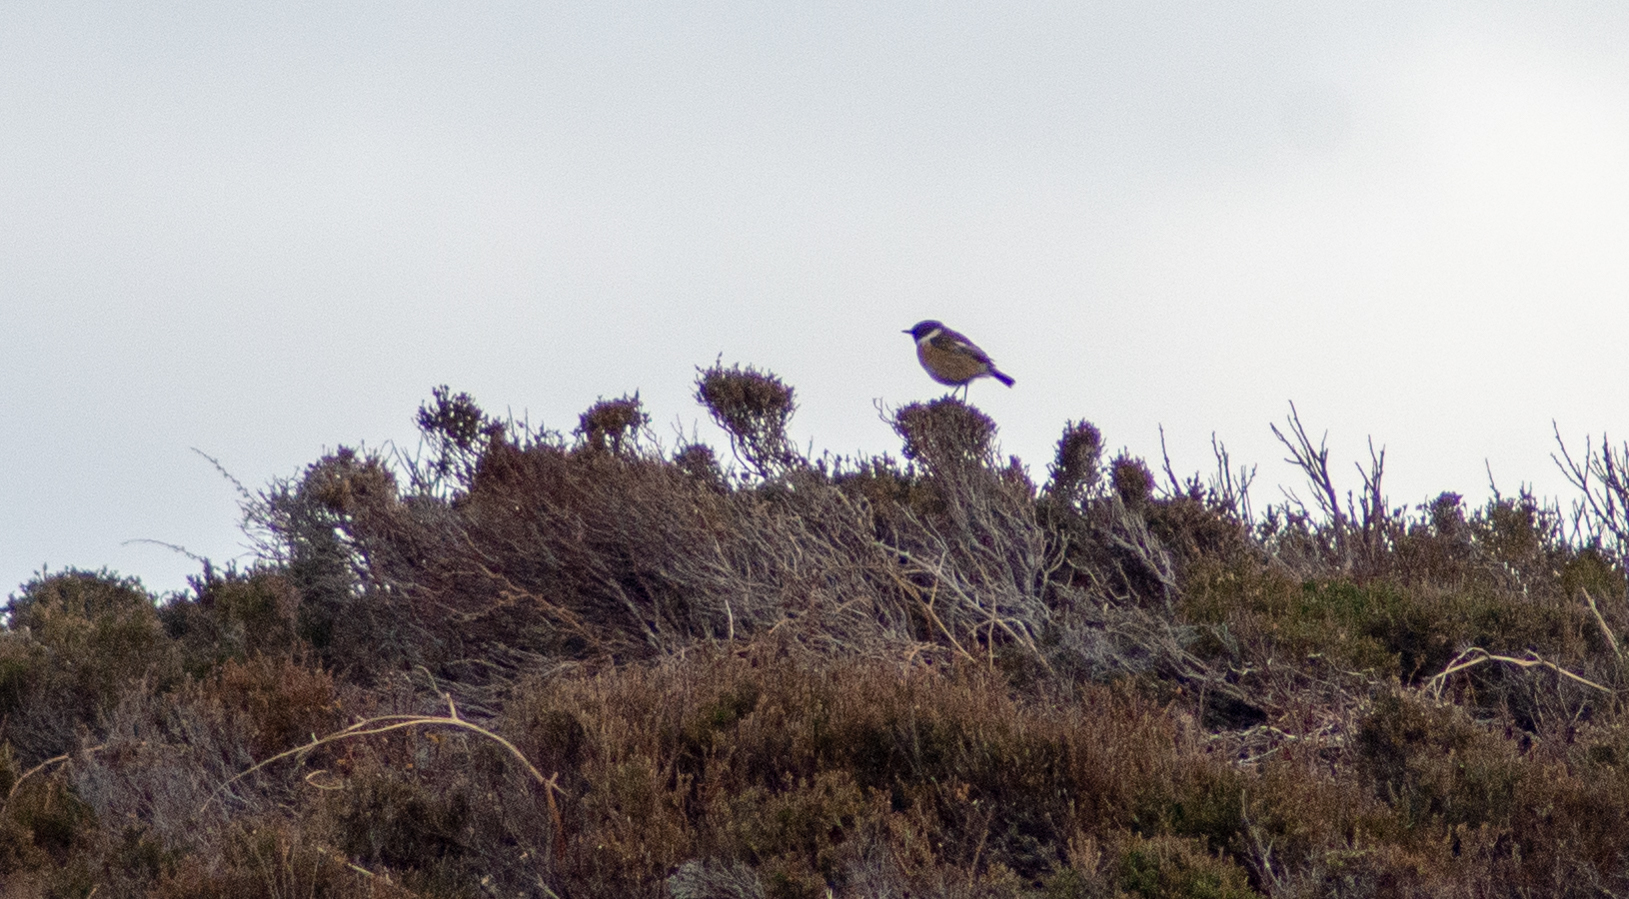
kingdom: Animalia
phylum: Chordata
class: Aves
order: Passeriformes
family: Muscicapidae
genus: Saxicola
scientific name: Saxicola rubicola
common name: European stonechat
